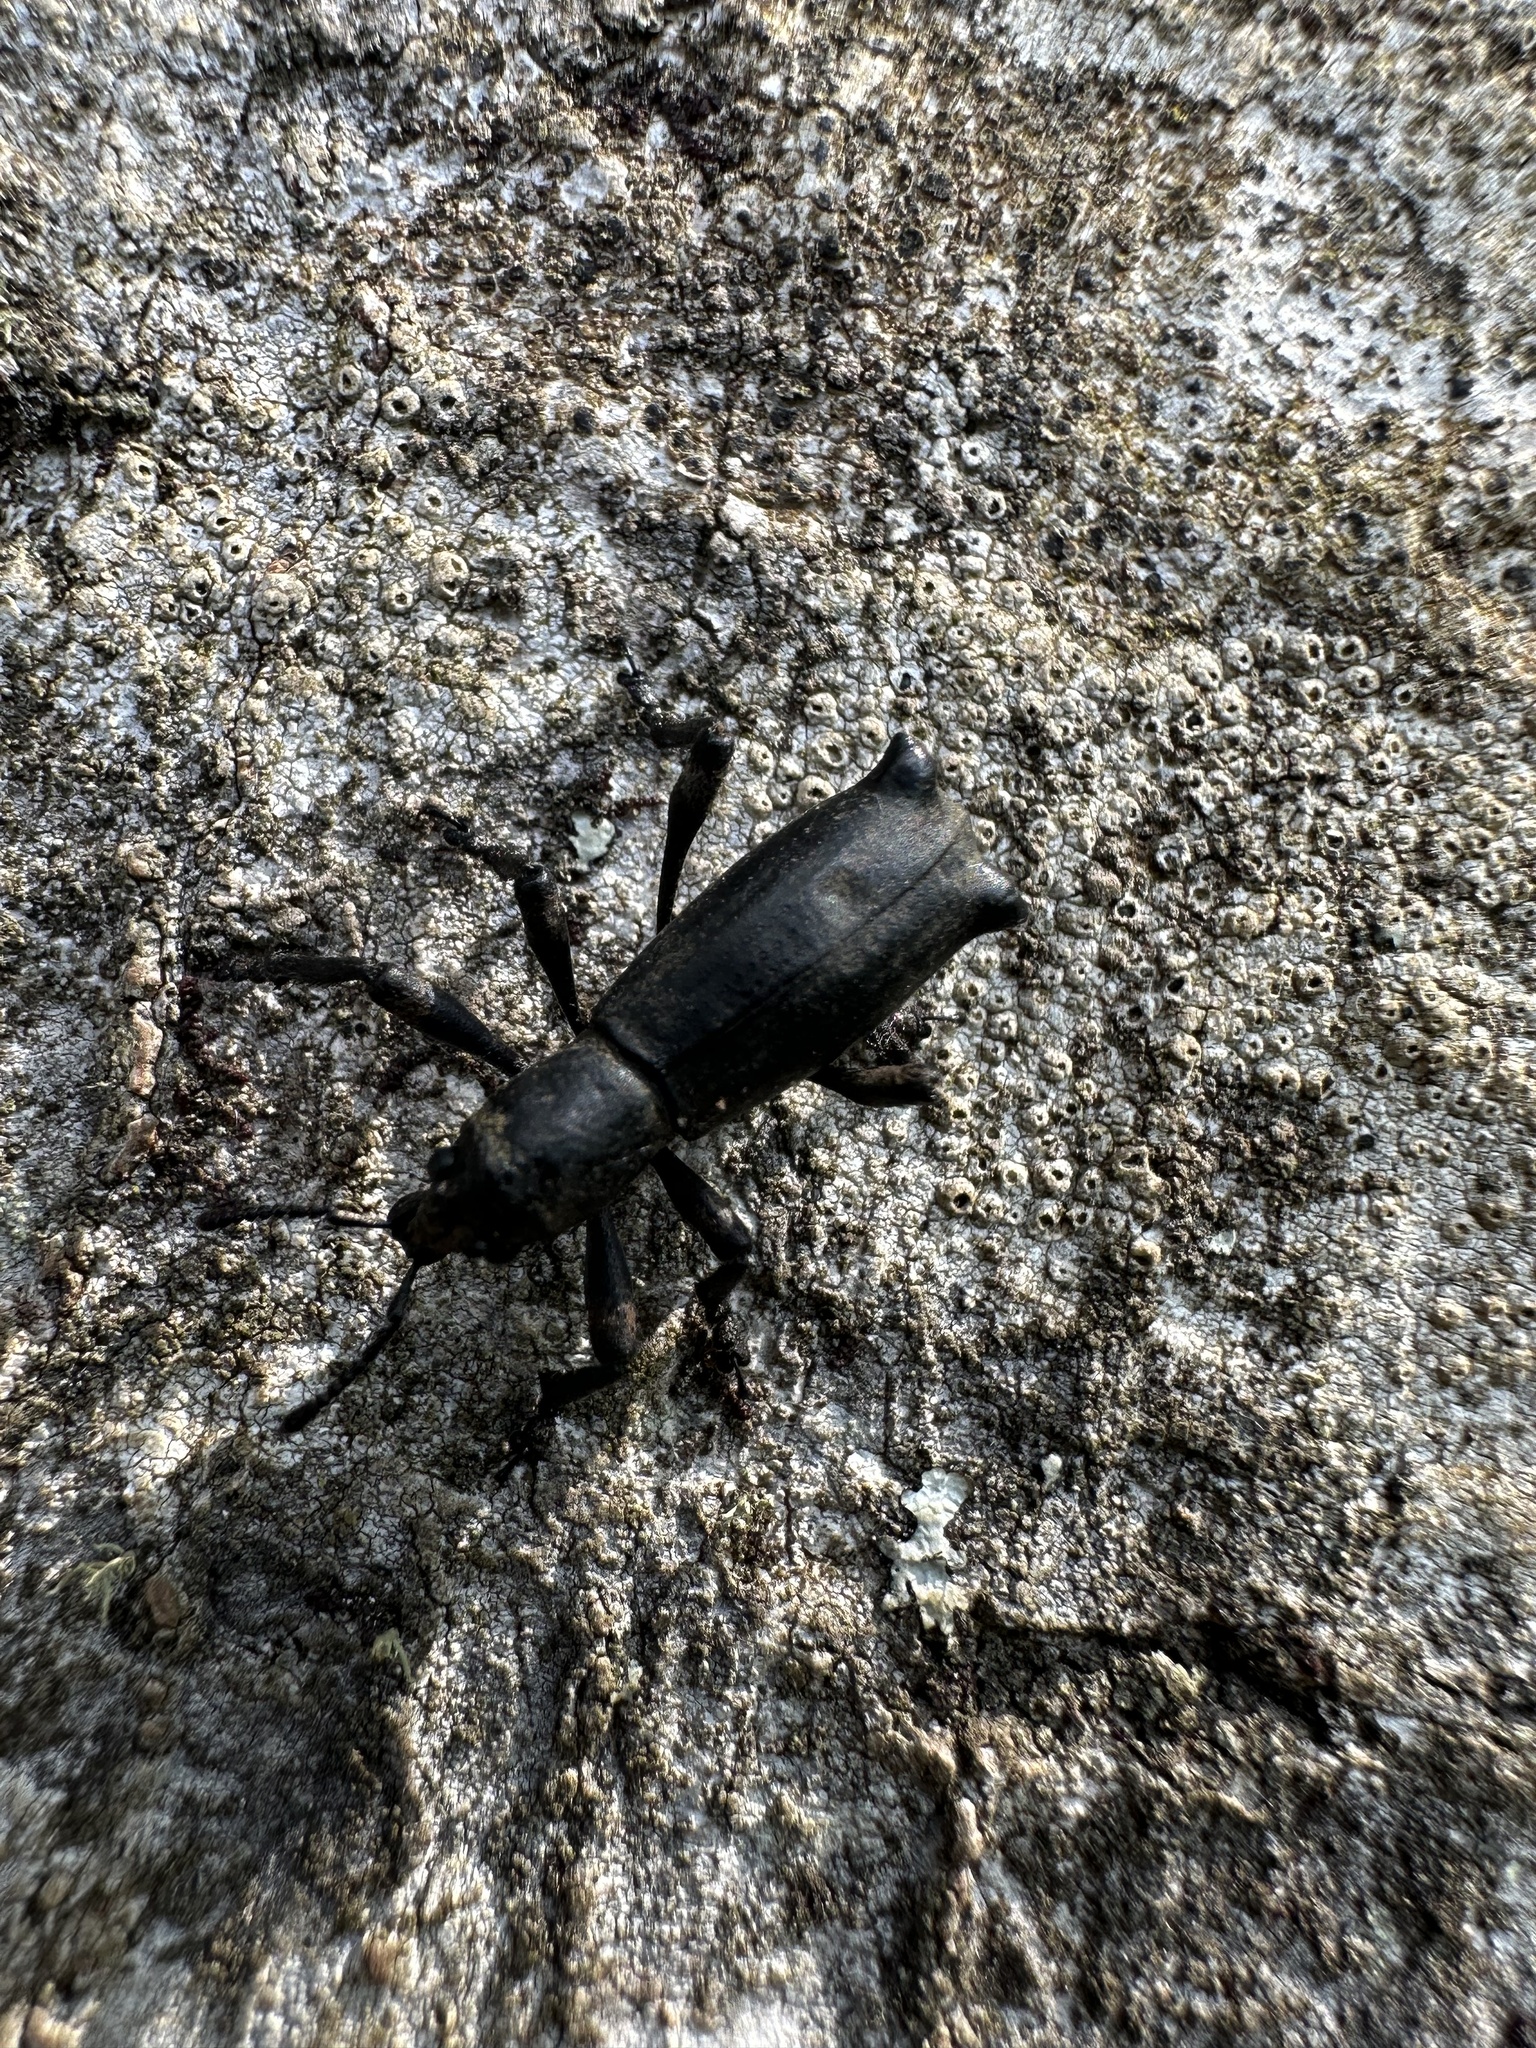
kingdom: Animalia
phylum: Arthropoda
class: Insecta
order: Coleoptera
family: Curculionidae
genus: Aegorhinus
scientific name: Aegorhinus
